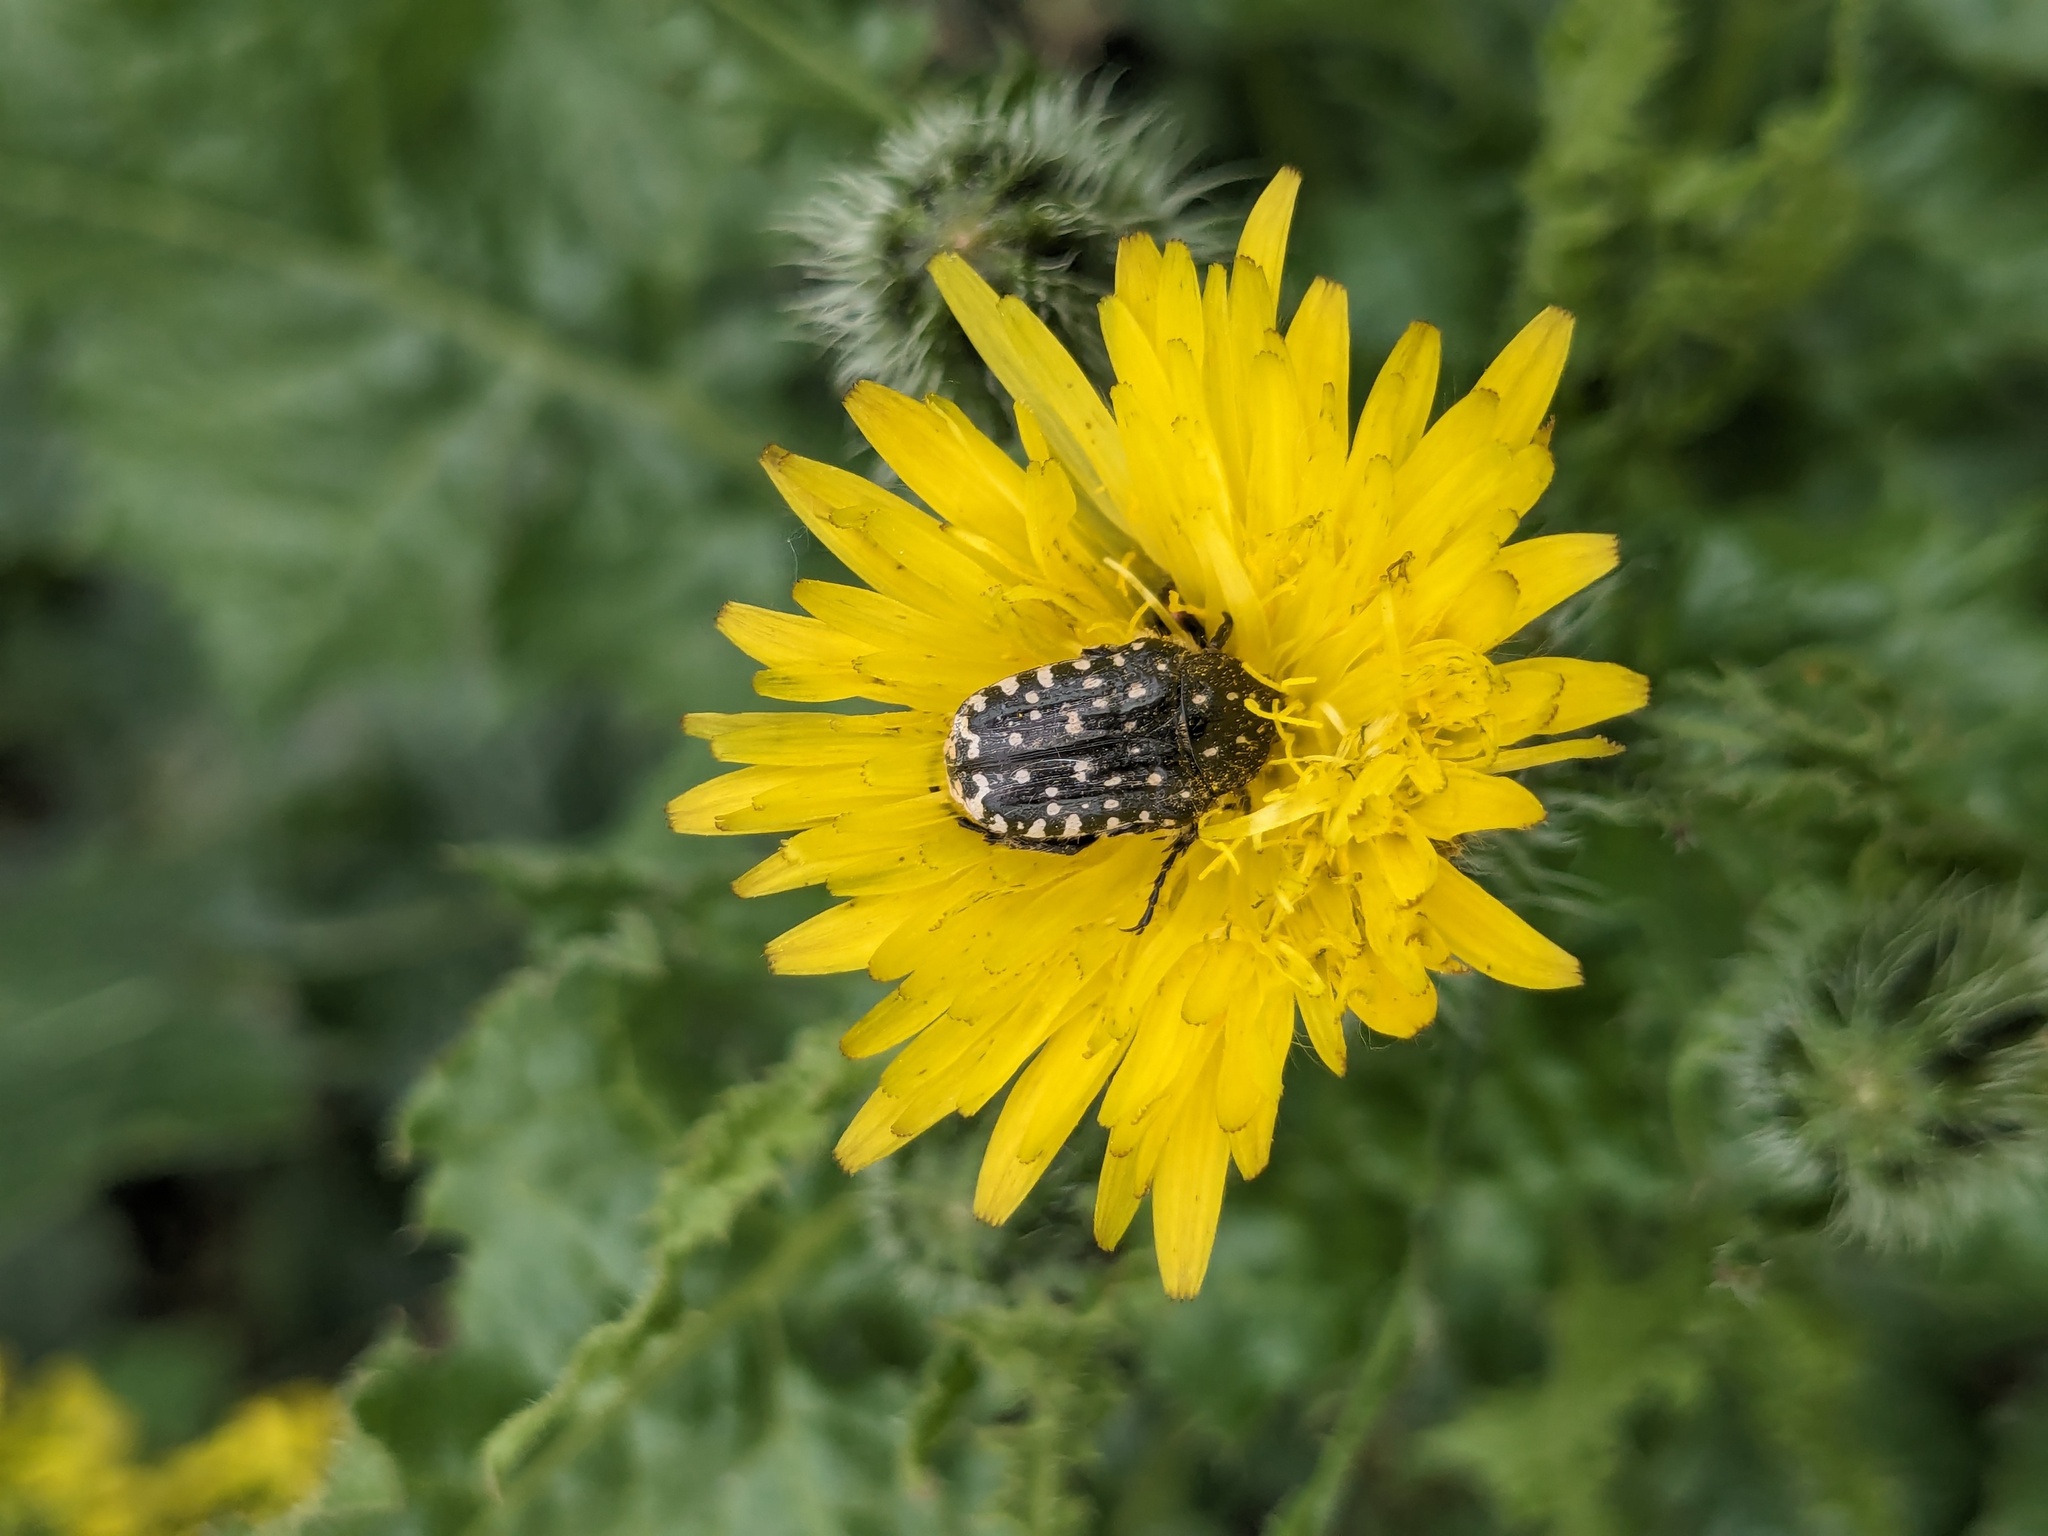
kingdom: Animalia
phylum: Arthropoda
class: Insecta
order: Coleoptera
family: Scarabaeidae
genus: Oxythyrea
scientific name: Oxythyrea funesta
